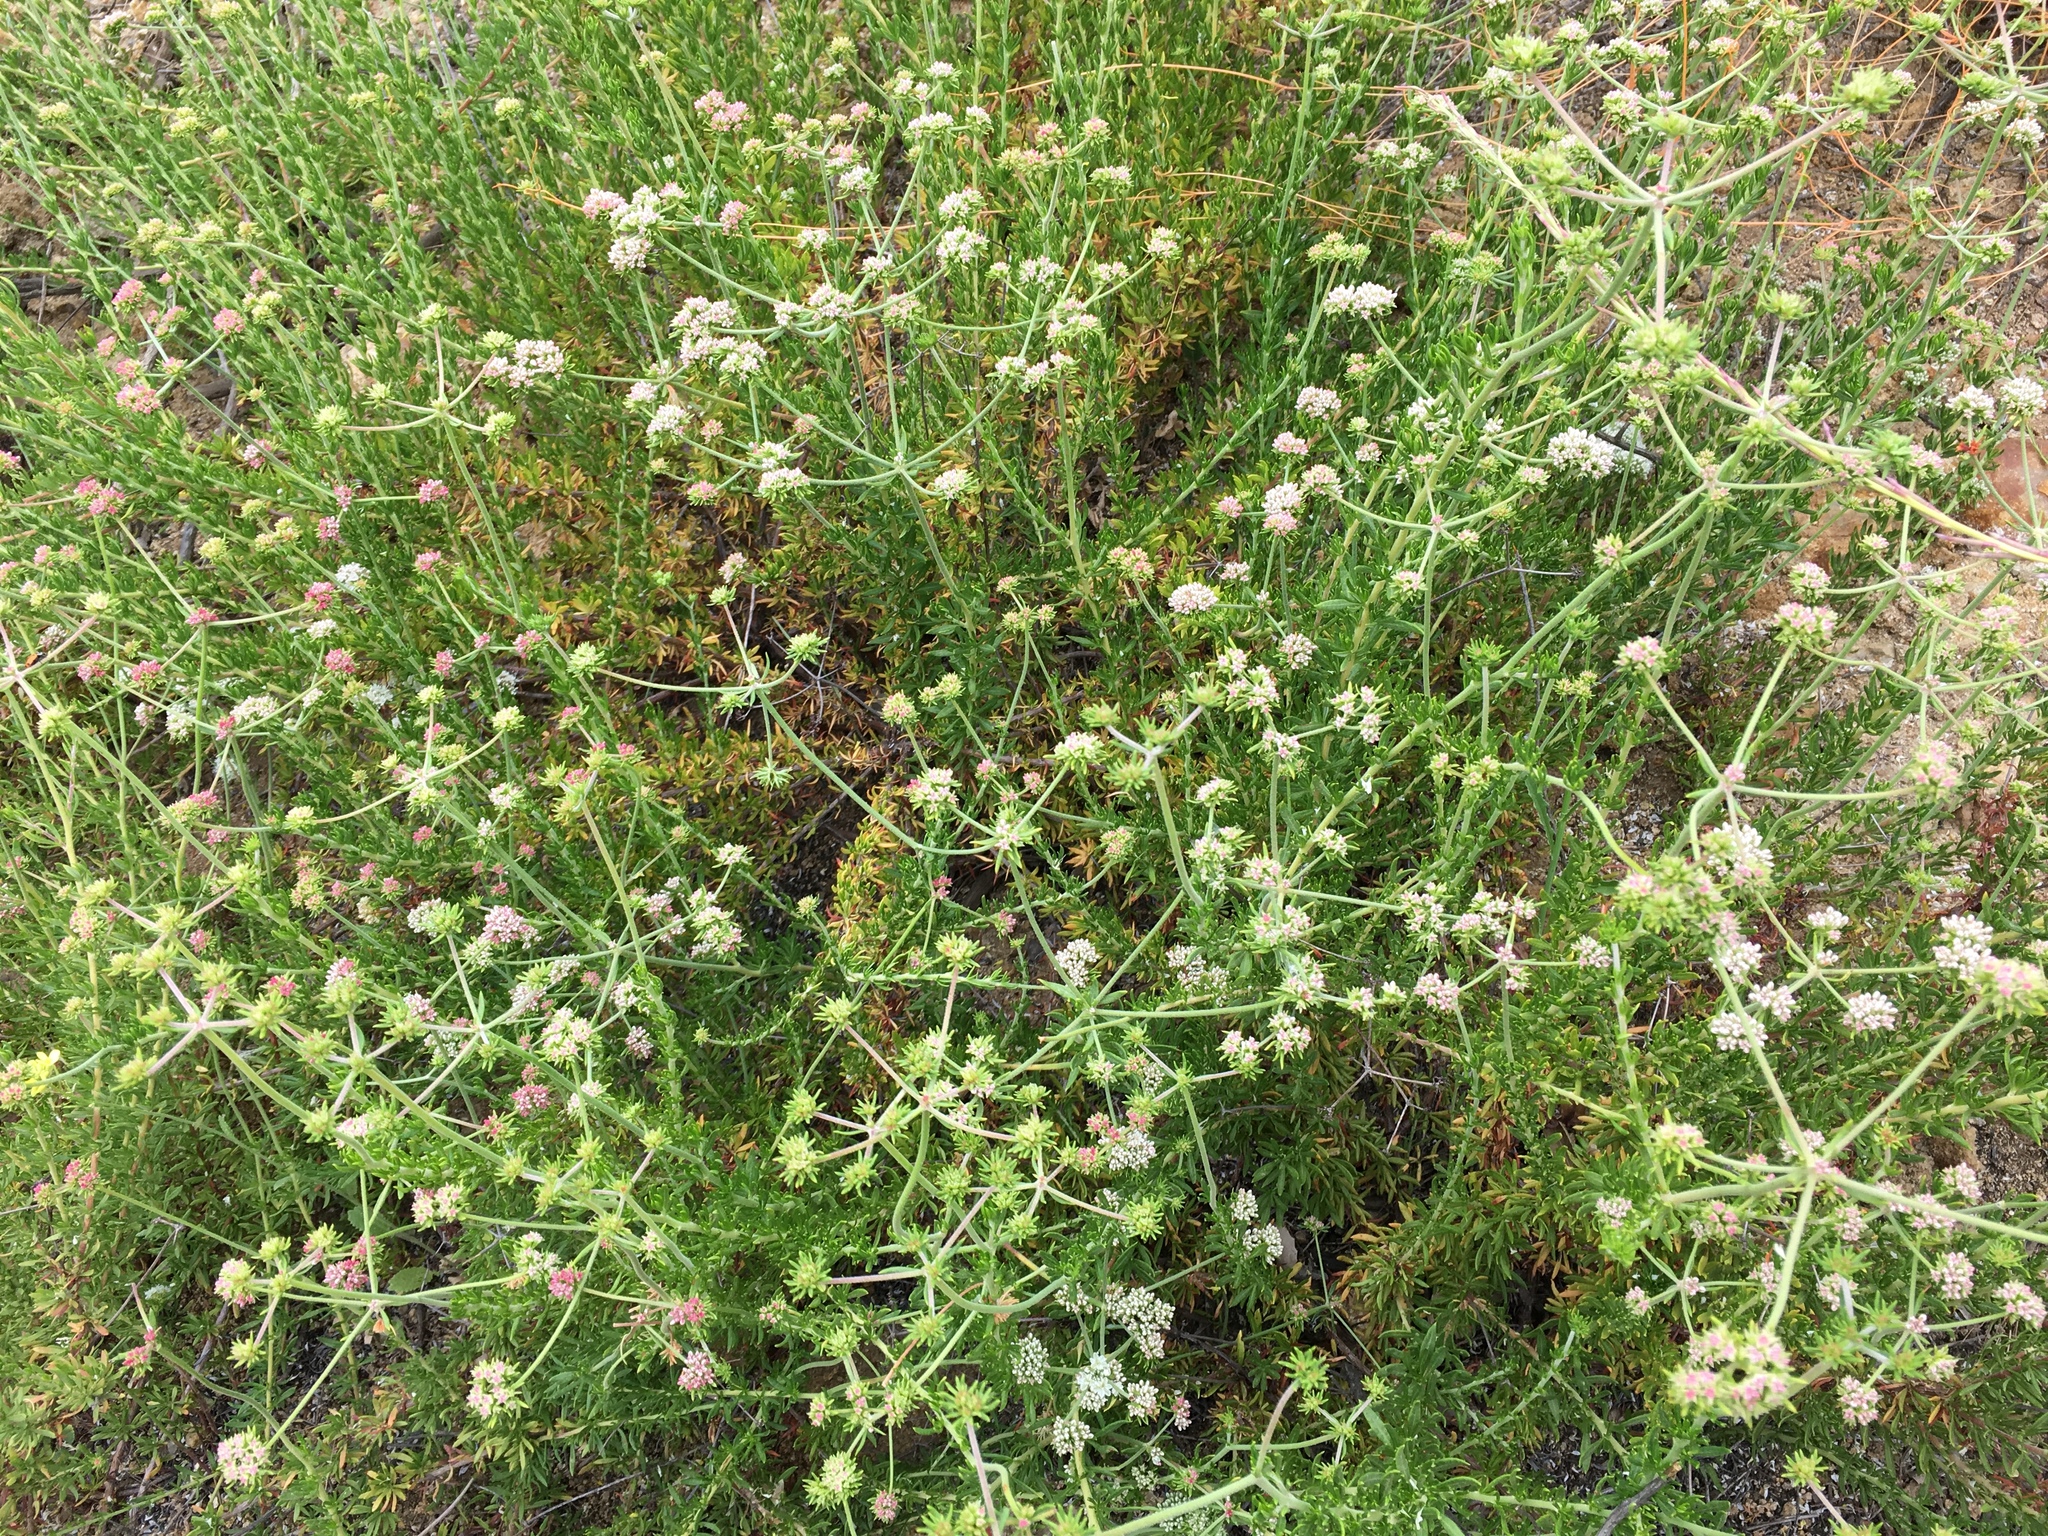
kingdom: Plantae
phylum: Tracheophyta
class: Magnoliopsida
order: Caryophyllales
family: Polygonaceae
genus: Eriogonum
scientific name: Eriogonum fasciculatum
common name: California wild buckwheat
